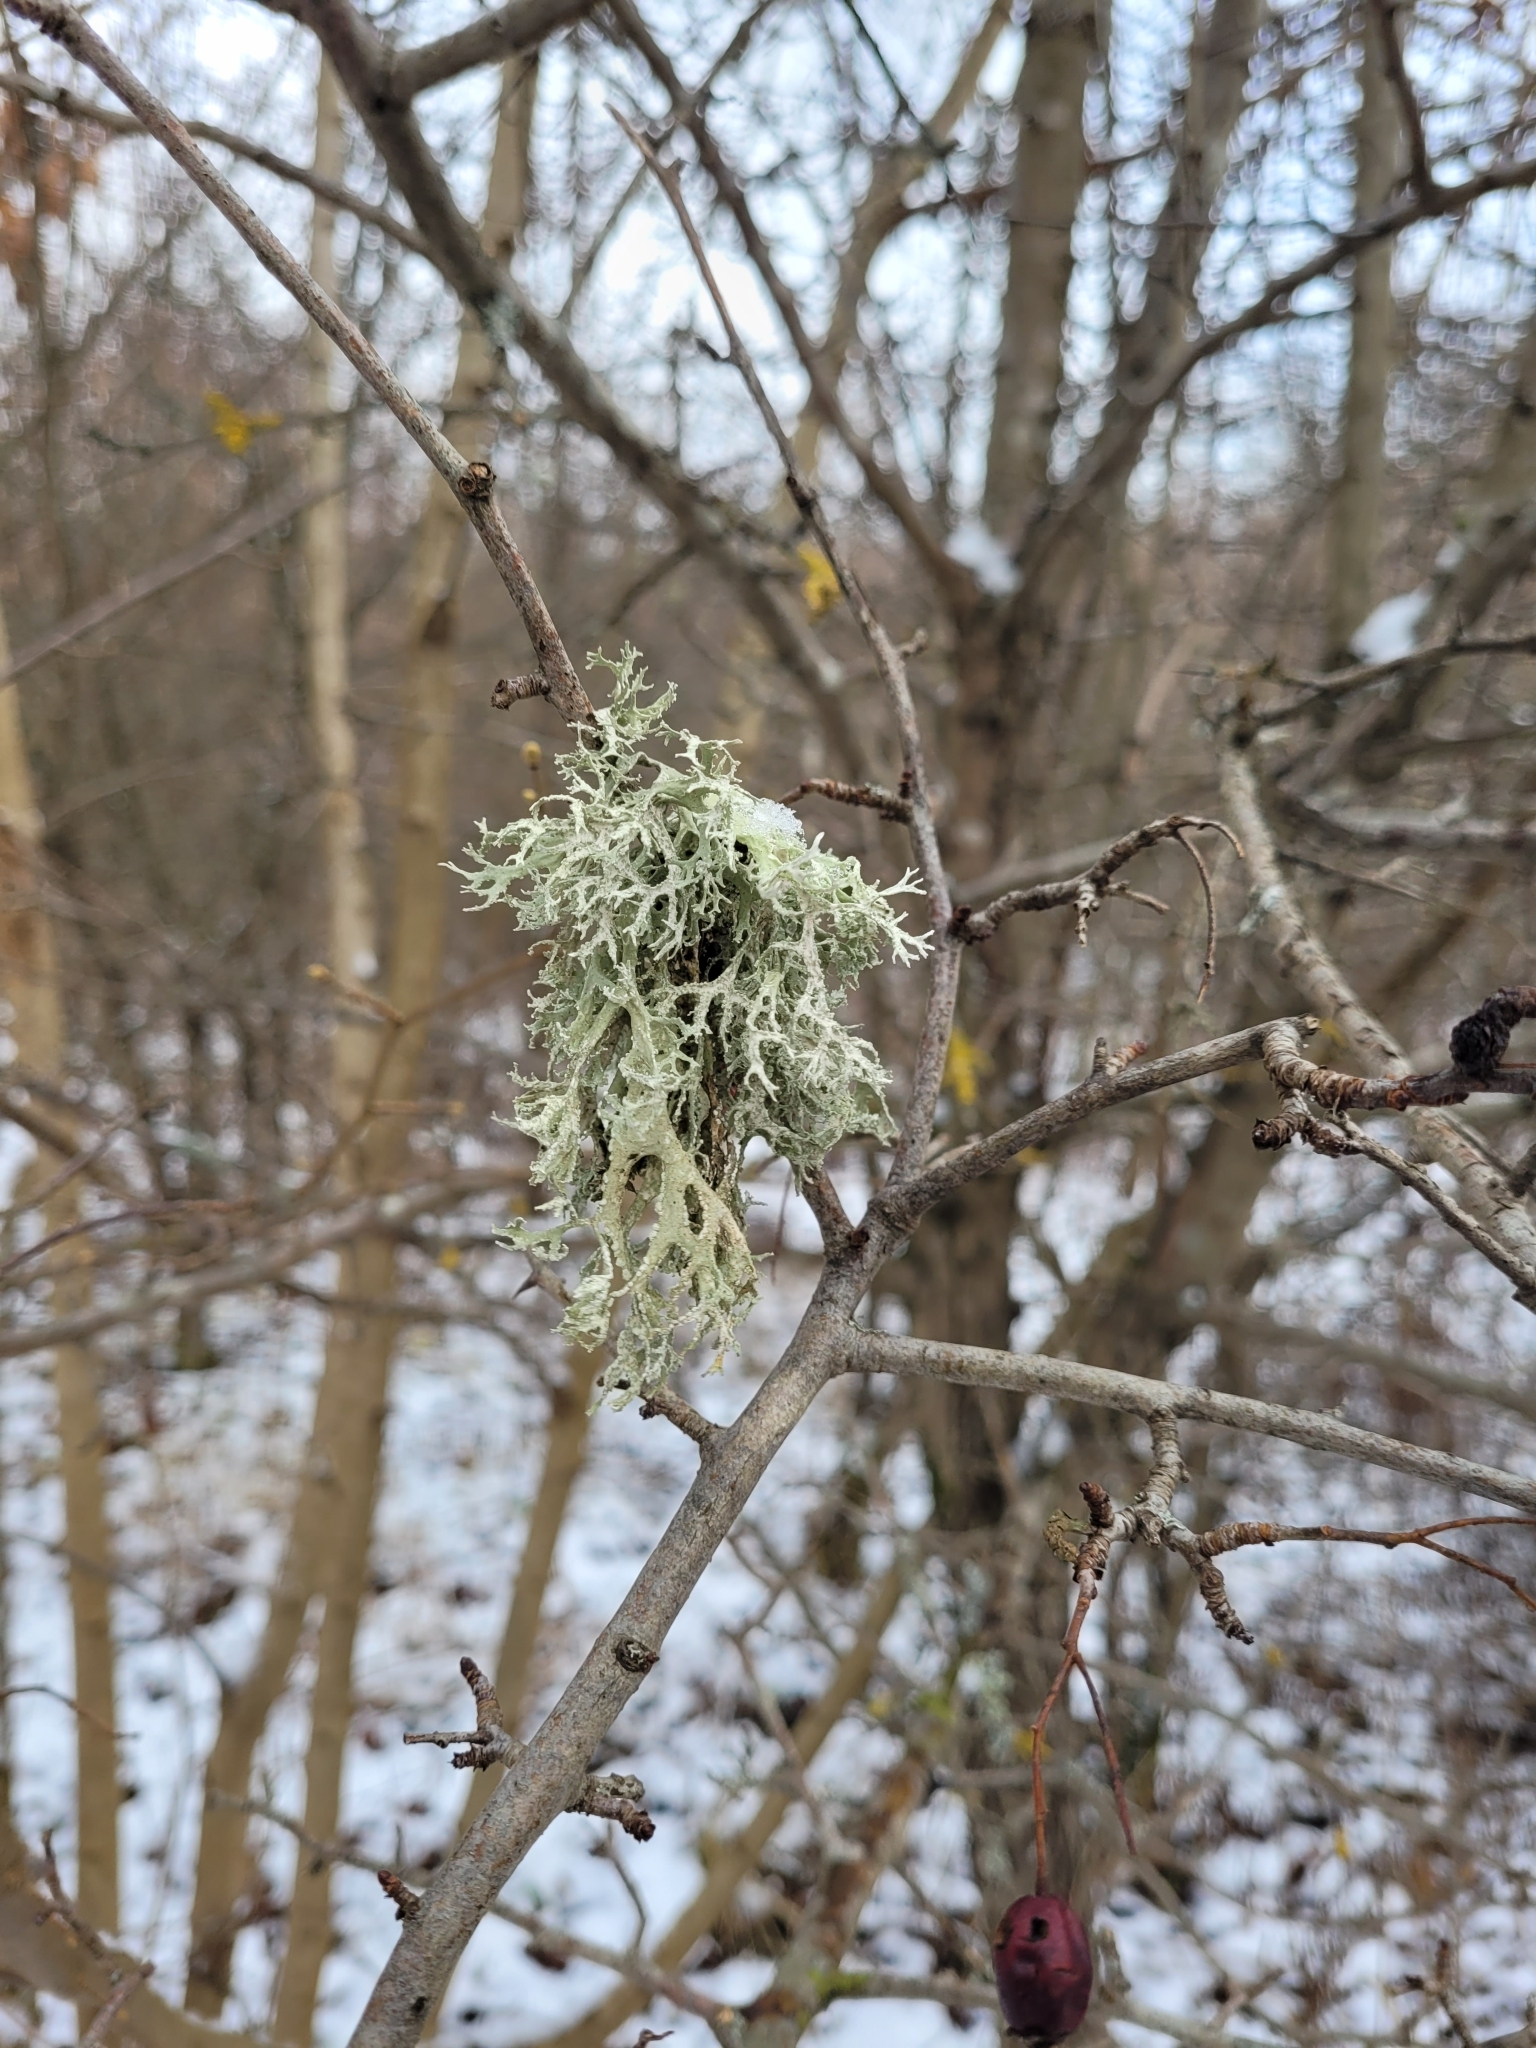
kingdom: Fungi
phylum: Ascomycota
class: Lecanoromycetes
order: Lecanorales
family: Parmeliaceae
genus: Evernia
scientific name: Evernia prunastri
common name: Oak moss
